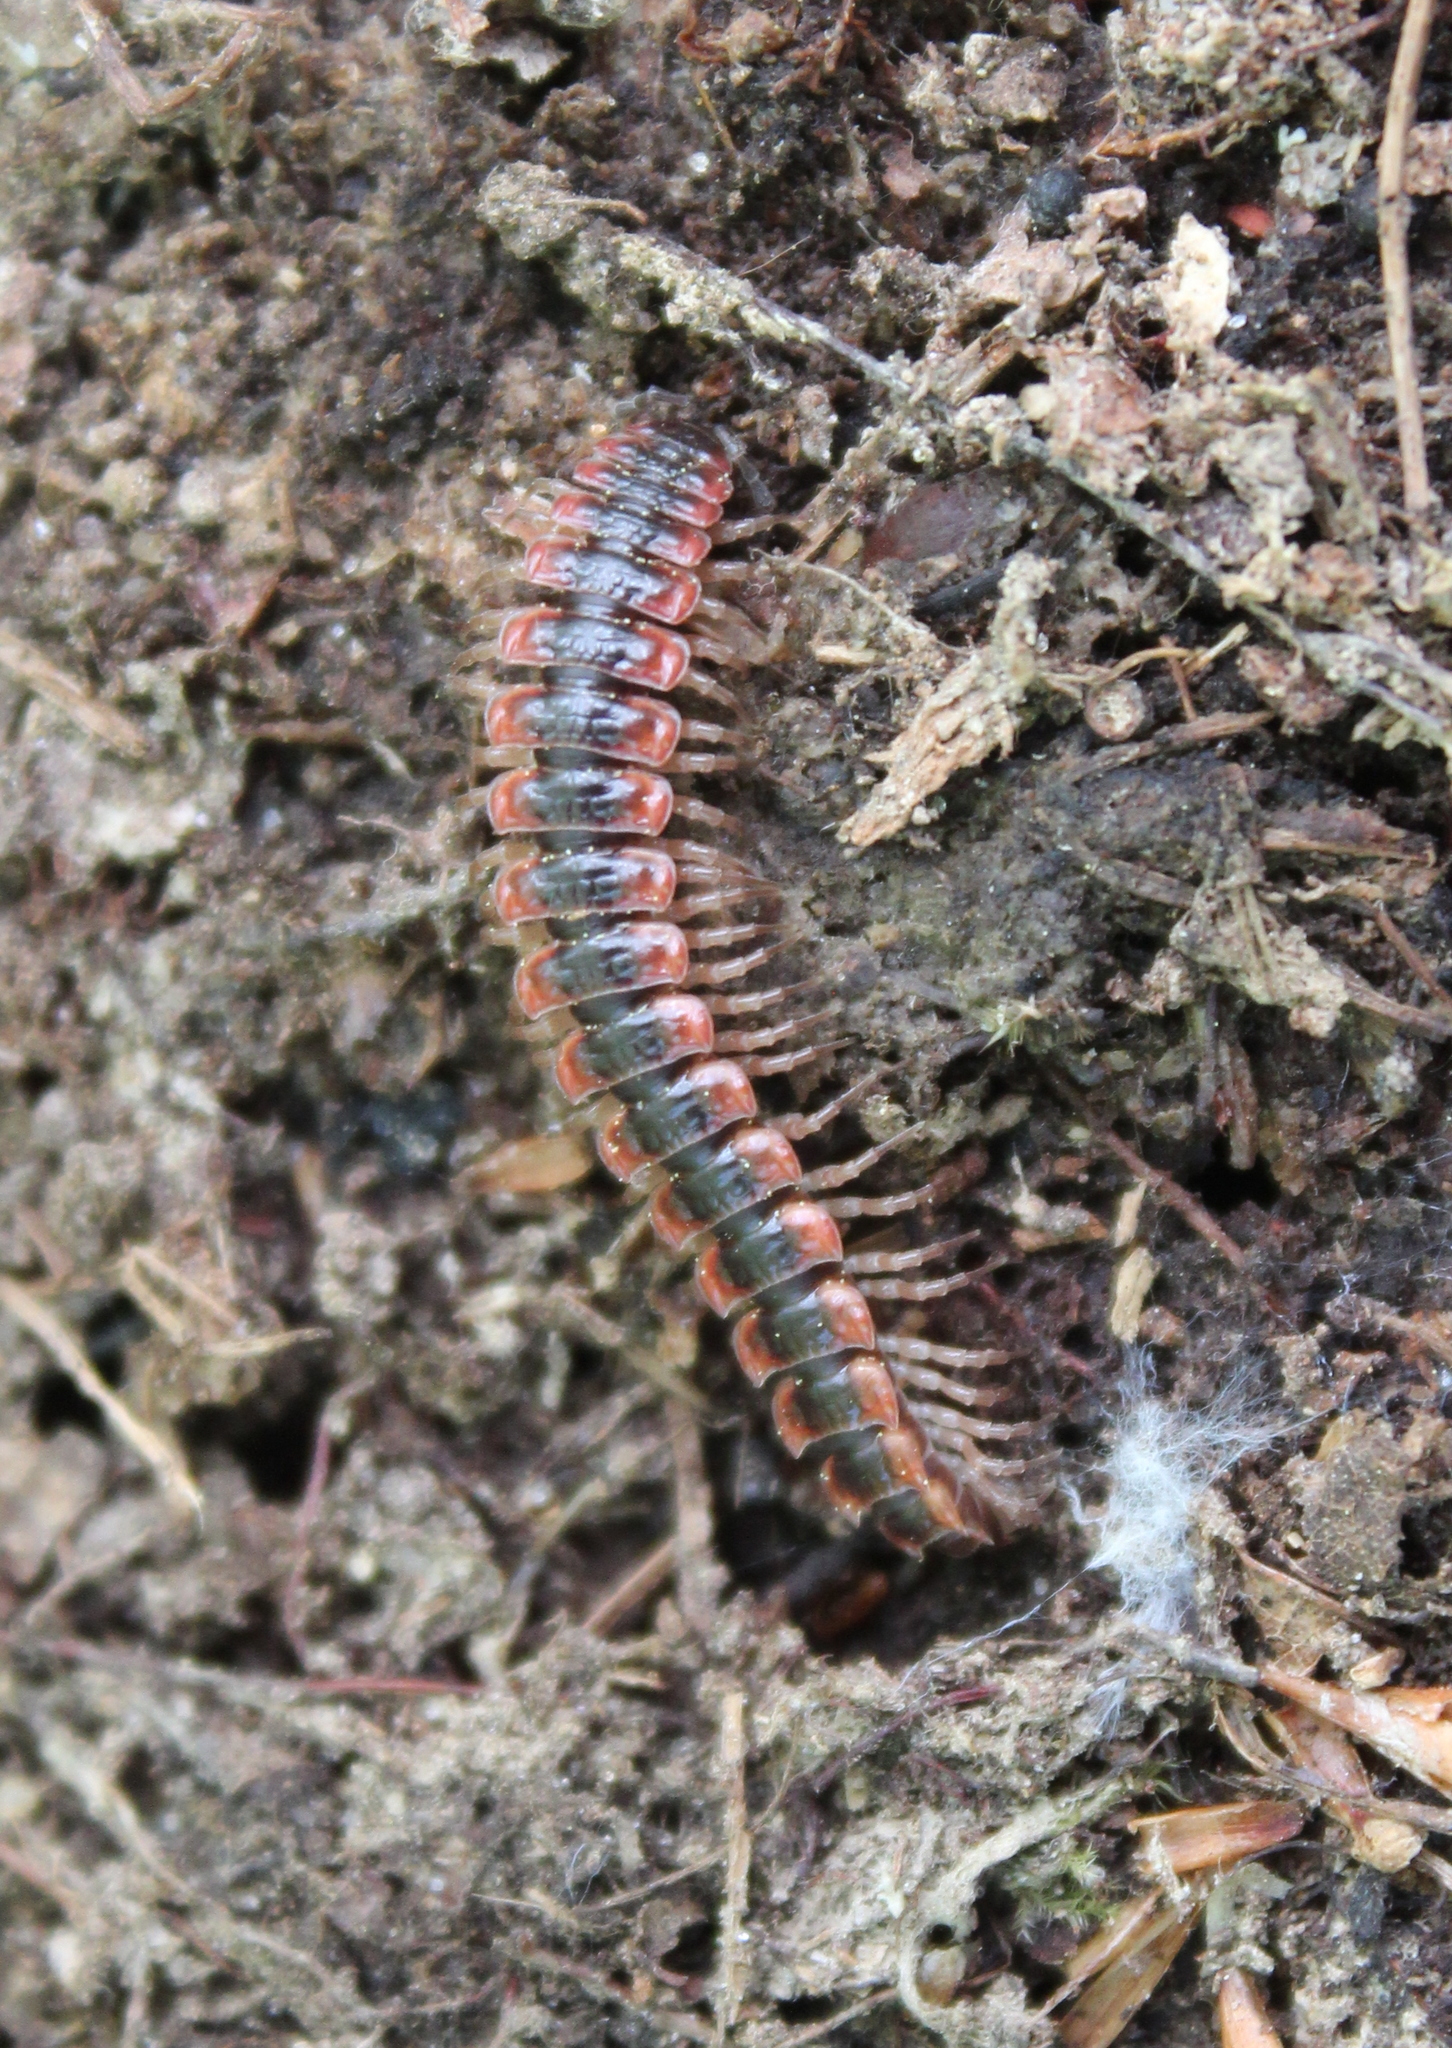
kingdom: Animalia
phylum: Arthropoda
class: Diplopoda
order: Polydesmida
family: Polydesmidae
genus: Pseudopolydesmus
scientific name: Pseudopolydesmus canadensis
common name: Canadian flat-back millipede
